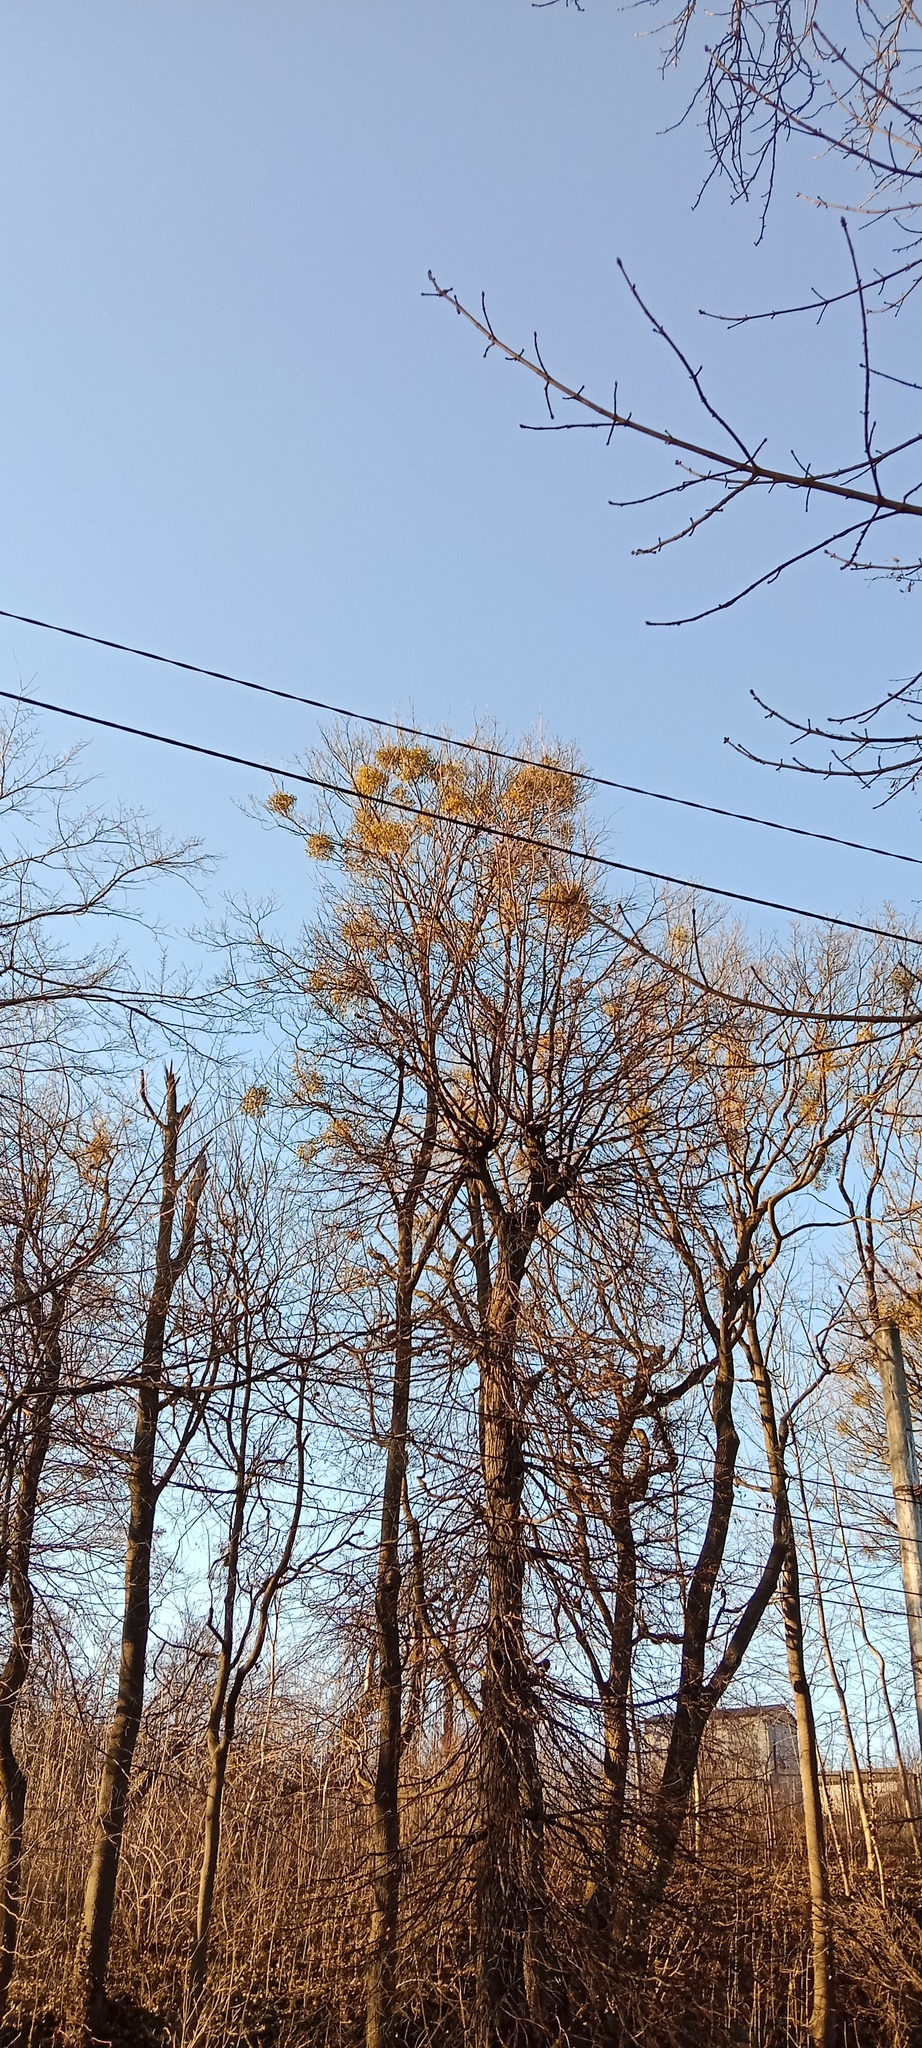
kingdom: Plantae
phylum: Tracheophyta
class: Magnoliopsida
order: Santalales
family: Viscaceae
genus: Viscum
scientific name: Viscum album
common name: Mistletoe
